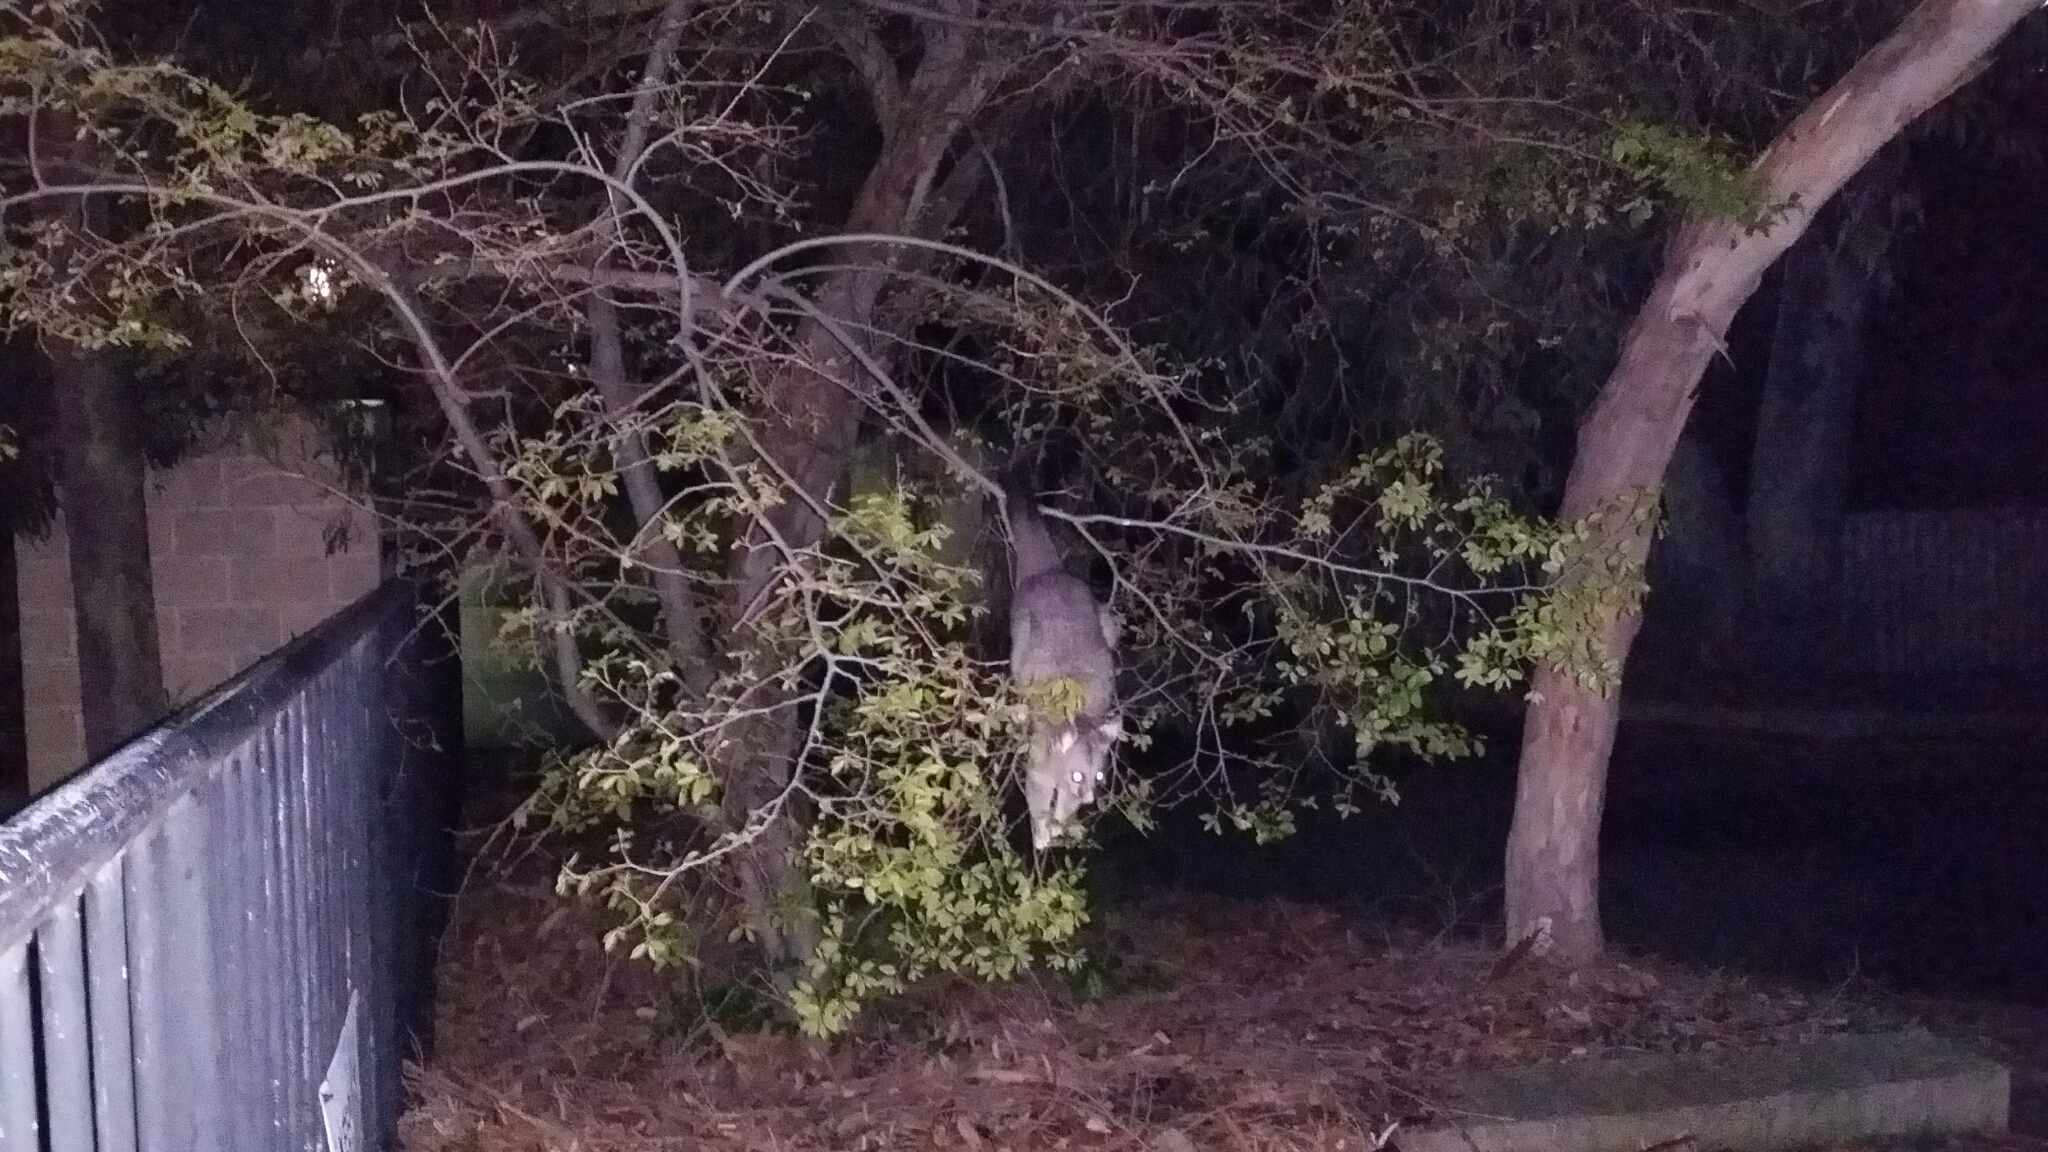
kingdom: Animalia
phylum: Chordata
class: Mammalia
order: Diprotodontia
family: Phalangeridae
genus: Trichosurus
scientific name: Trichosurus vulpecula
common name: Common brushtail
